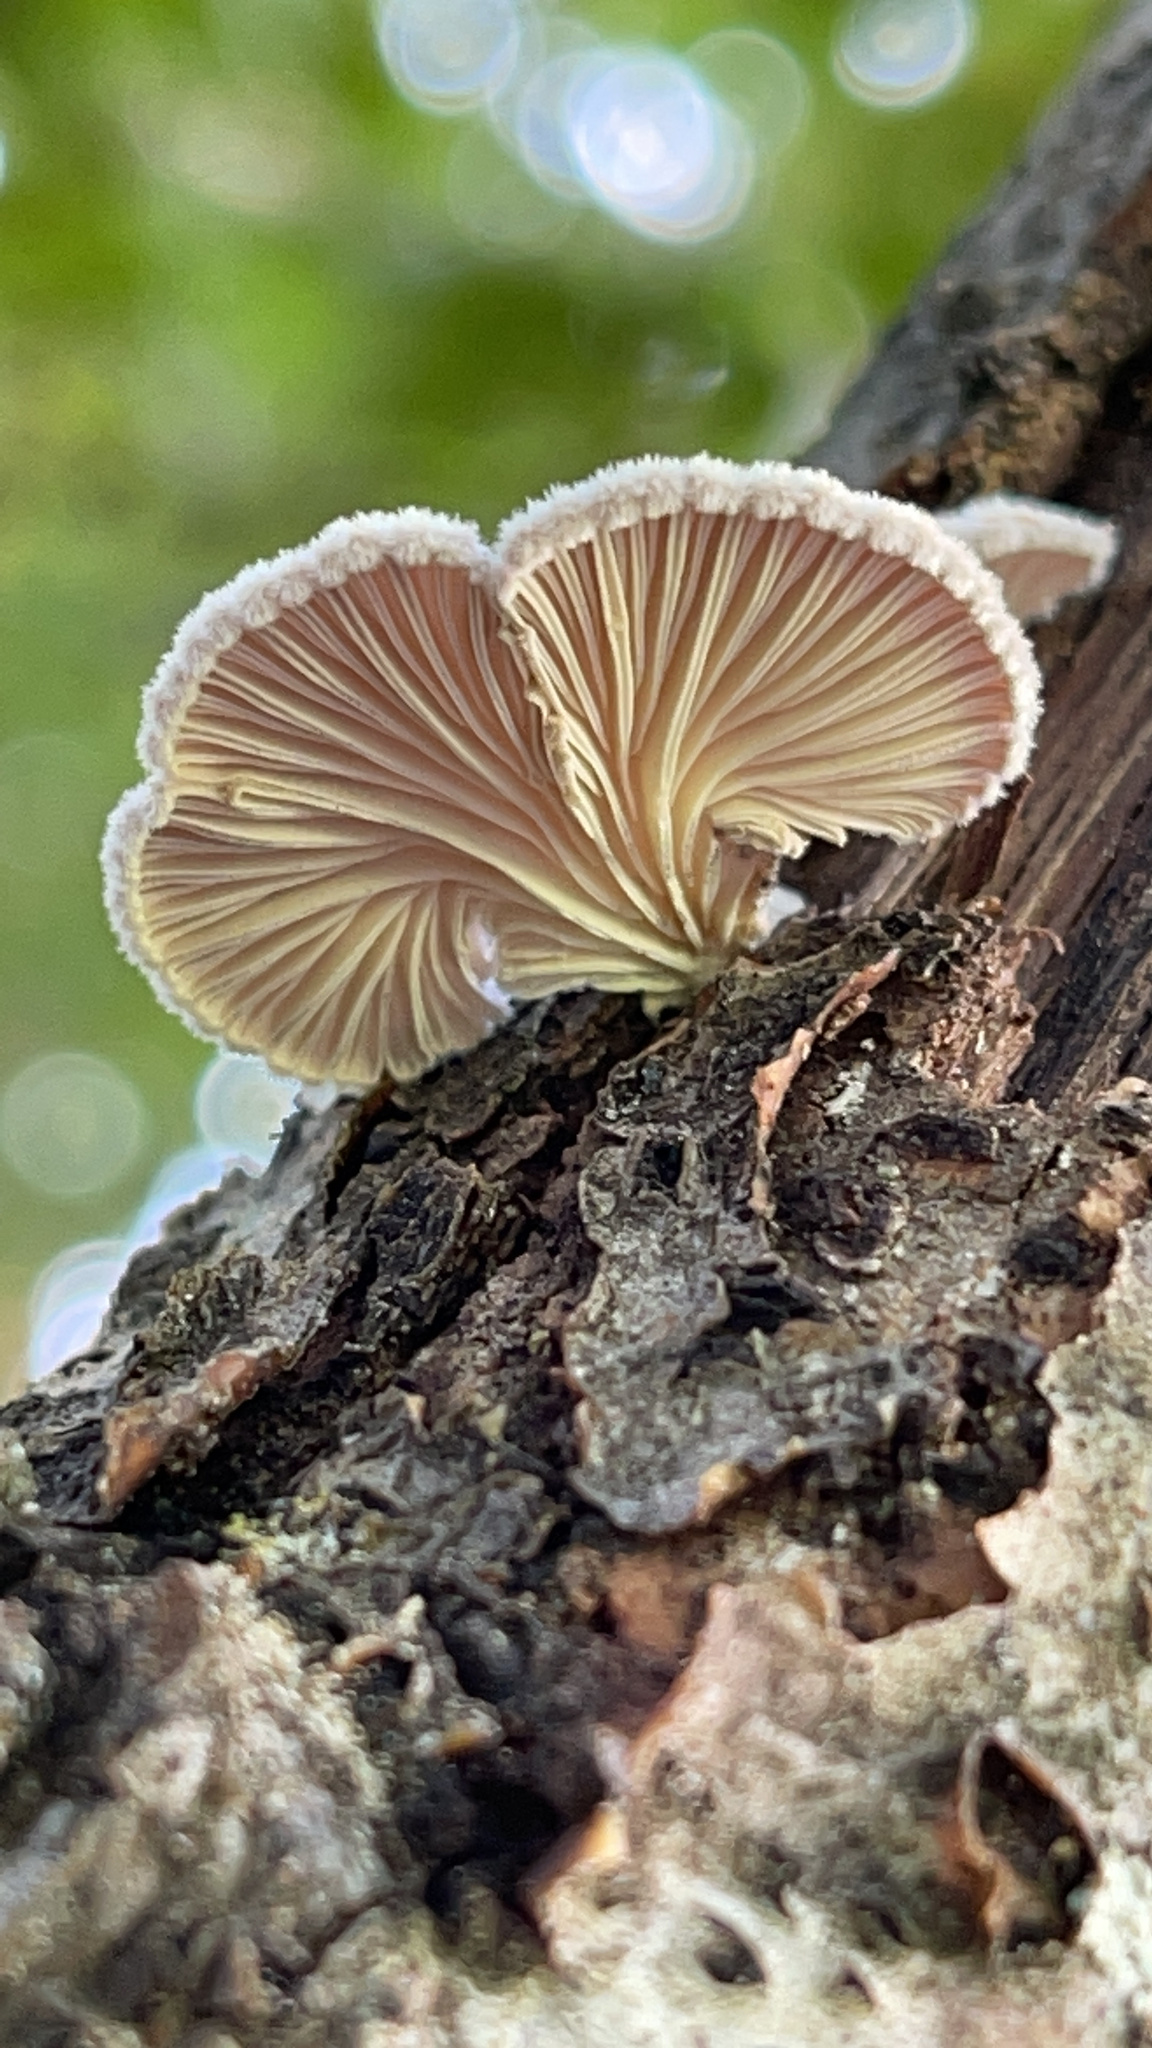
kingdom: Fungi
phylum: Basidiomycota
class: Agaricomycetes
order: Agaricales
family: Schizophyllaceae
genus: Schizophyllum
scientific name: Schizophyllum commune
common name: Common porecrust
